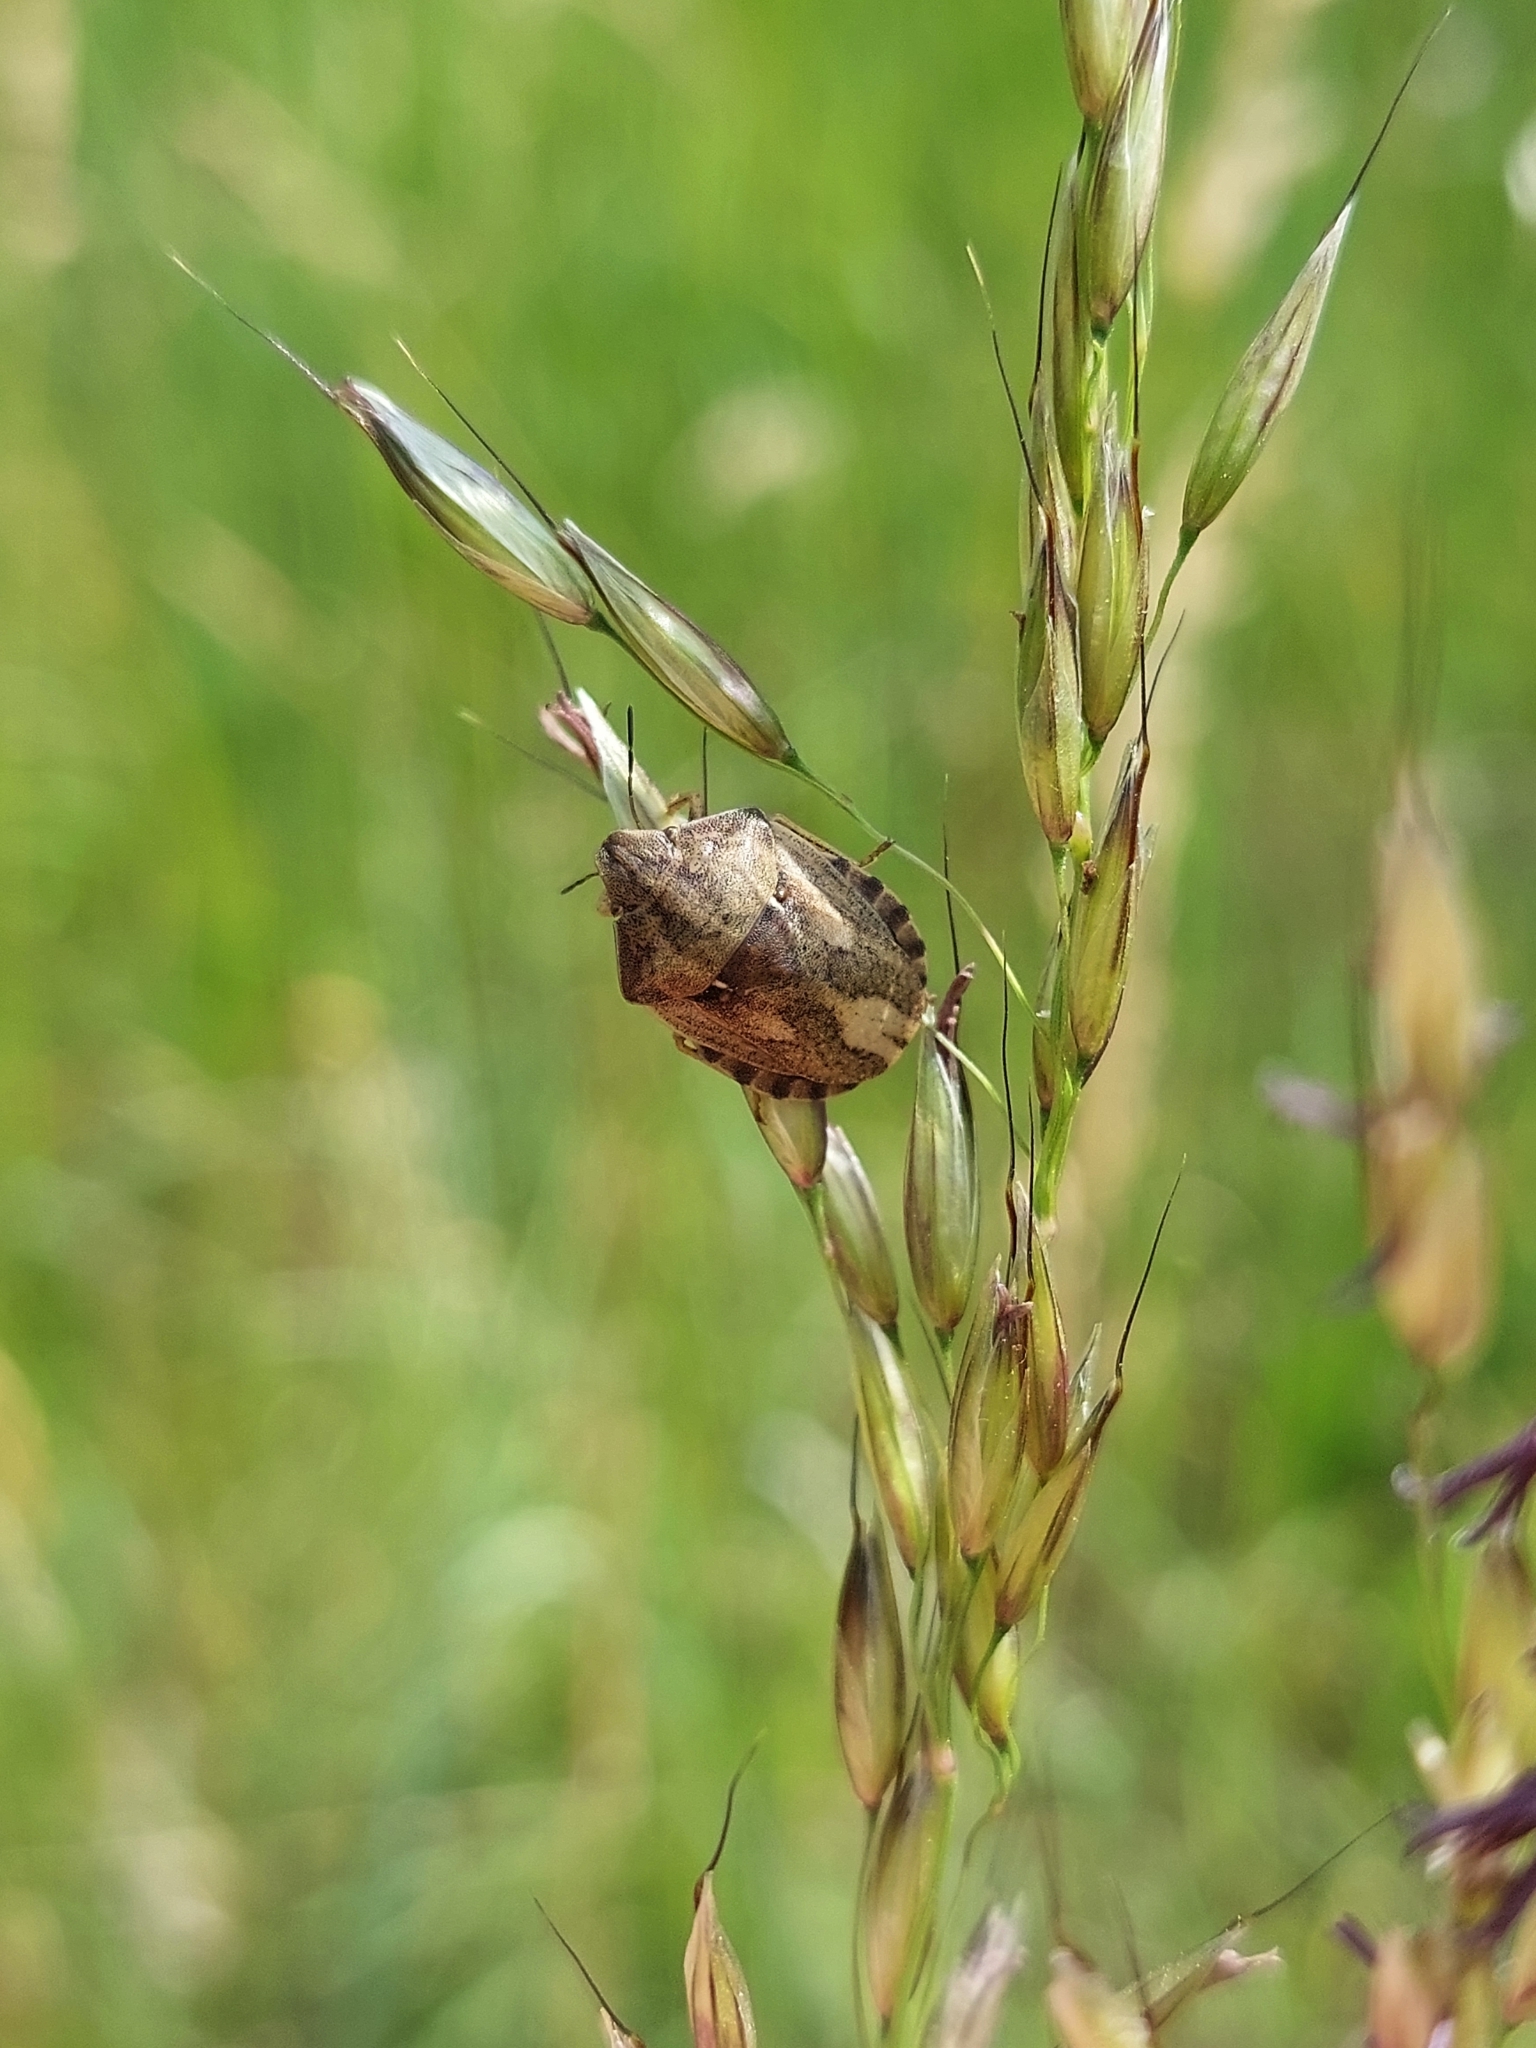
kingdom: Animalia
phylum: Arthropoda
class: Insecta
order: Hemiptera
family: Scutelleridae
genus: Eurygaster
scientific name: Eurygaster testudinaria
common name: Tortoise bug
